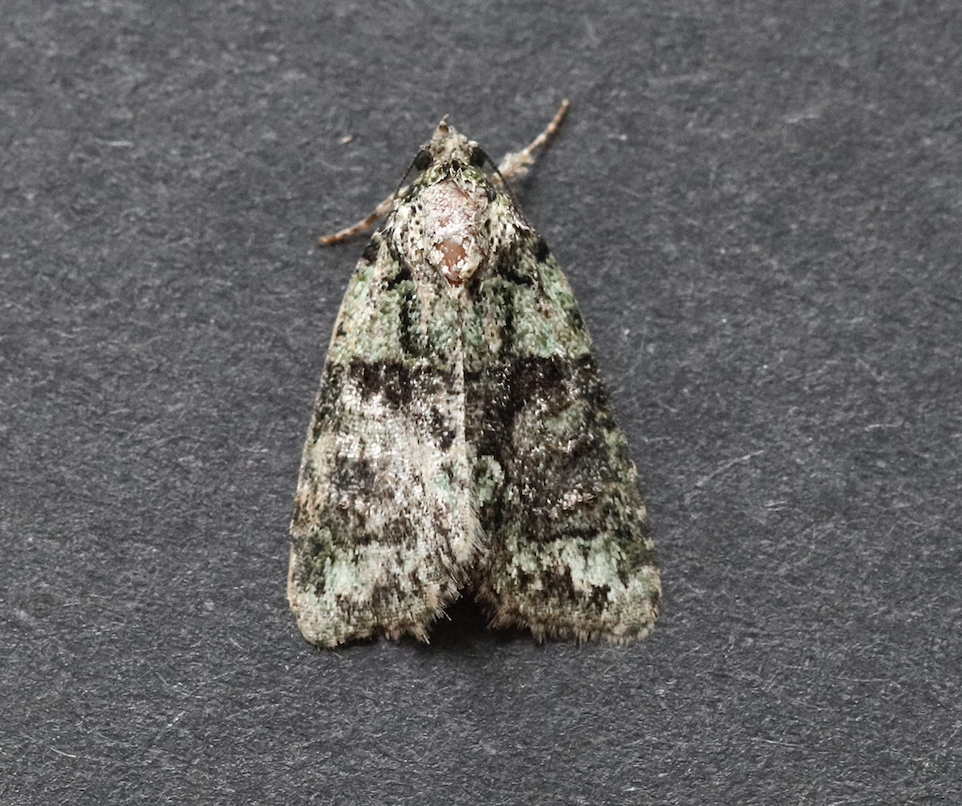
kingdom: Animalia
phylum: Arthropoda
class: Insecta
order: Lepidoptera
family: Noctuidae
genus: Cryphia
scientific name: Cryphia algae
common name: Tree-lichen beauty
